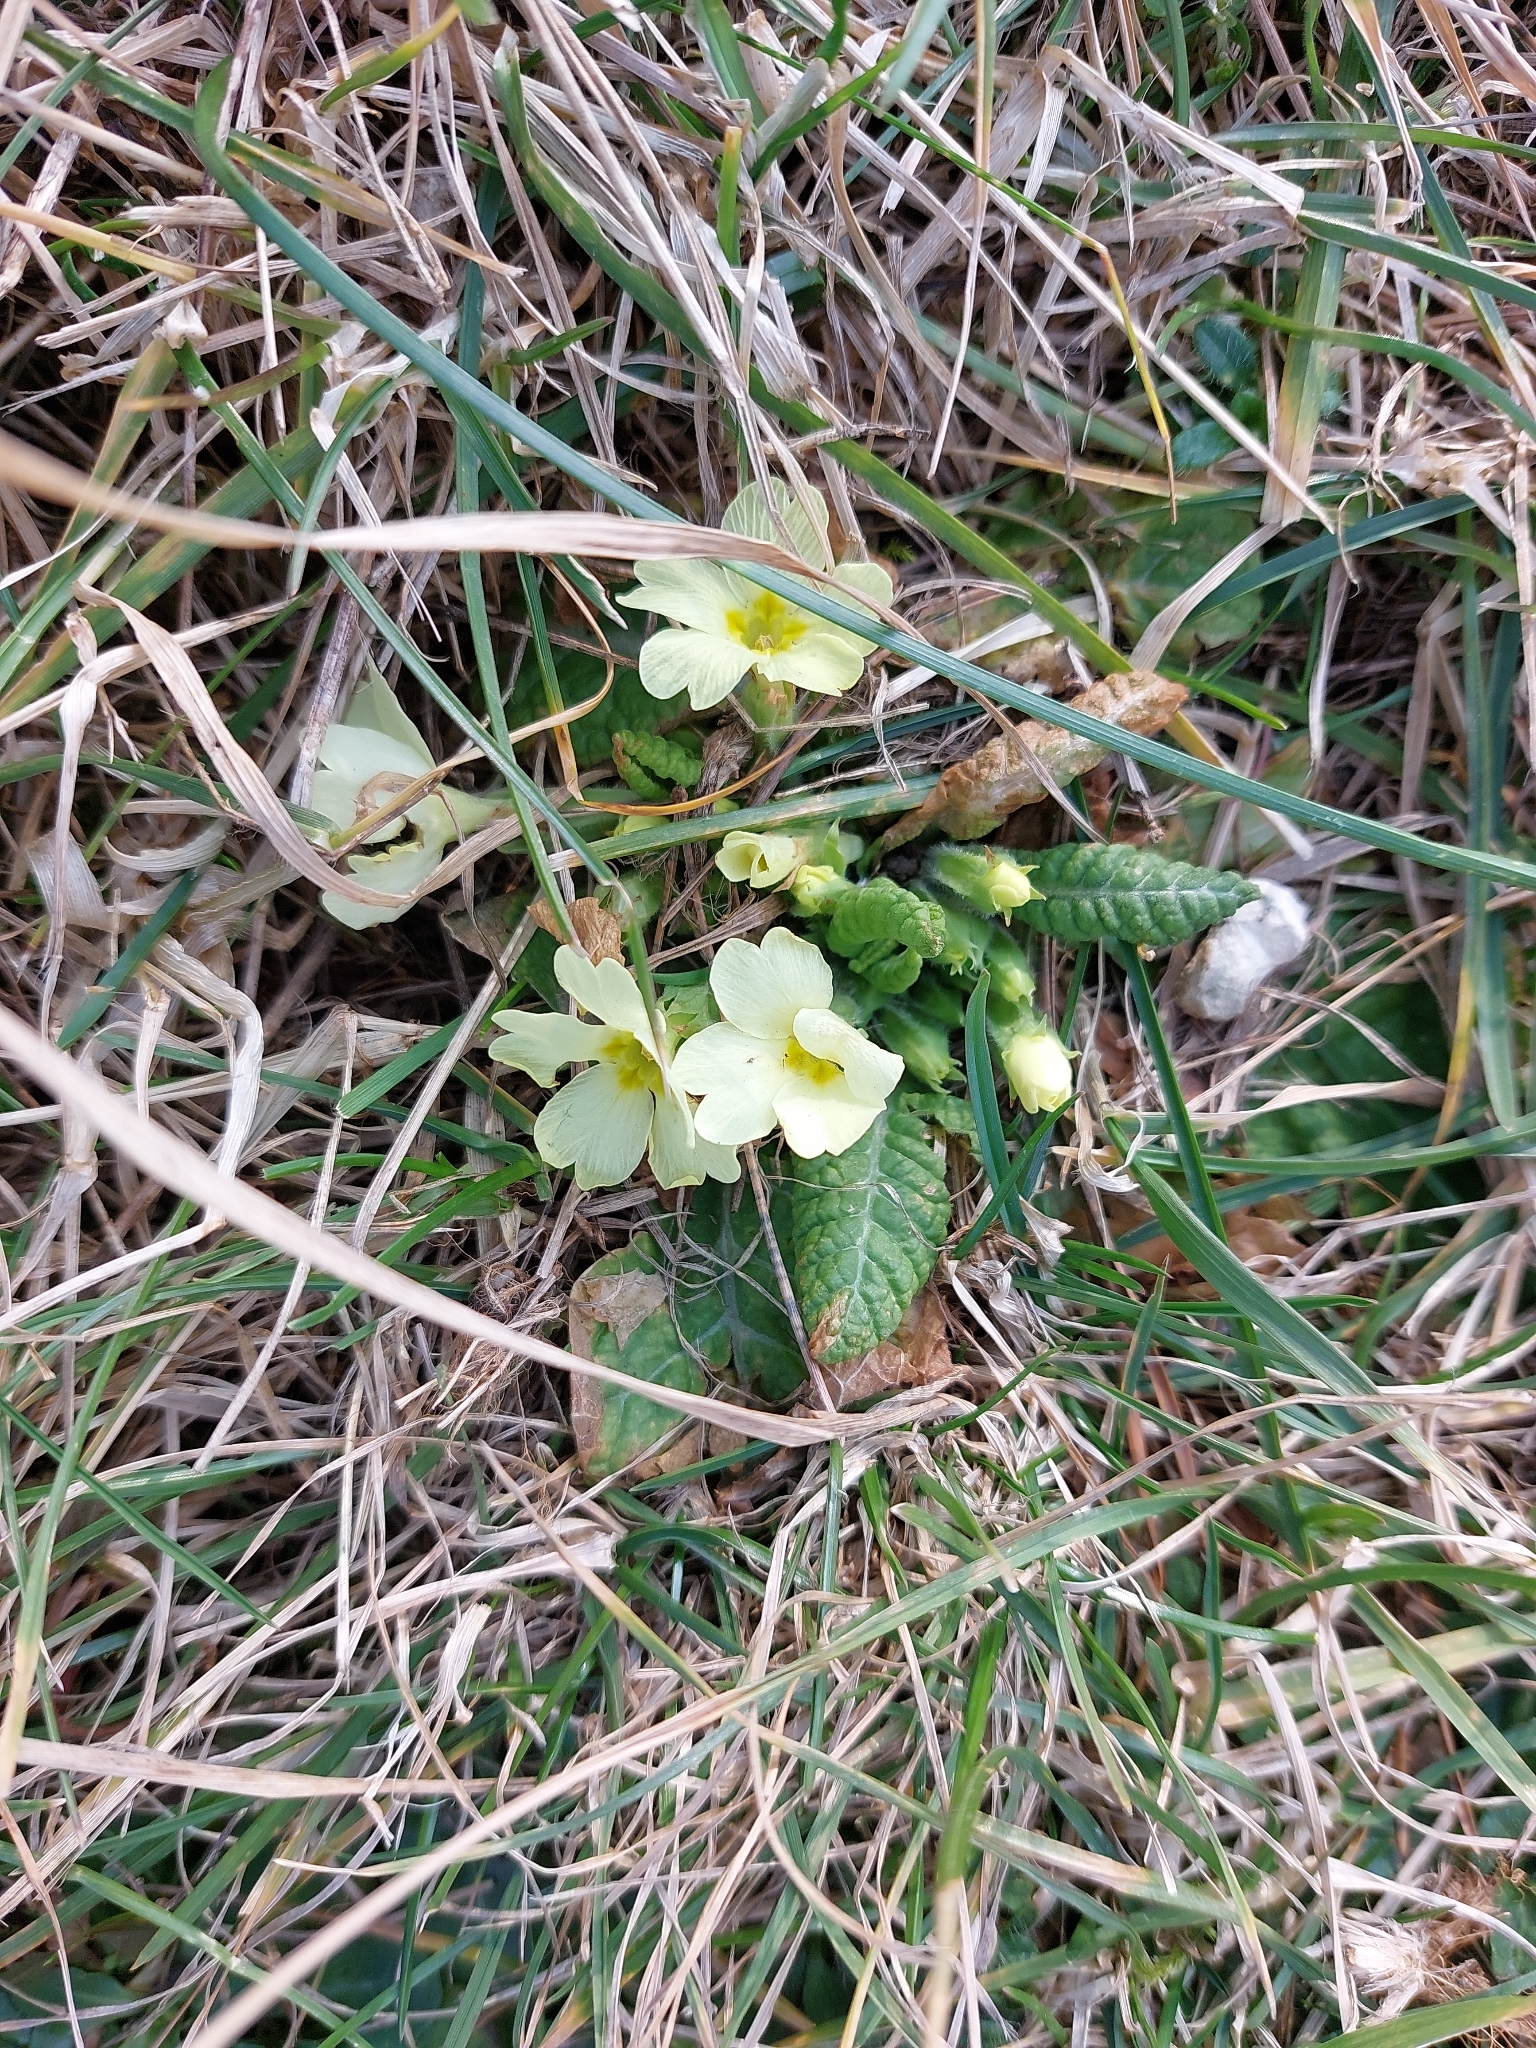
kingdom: Plantae
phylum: Tracheophyta
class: Magnoliopsida
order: Ericales
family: Primulaceae
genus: Primula
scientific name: Primula vulgaris
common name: Primrose
